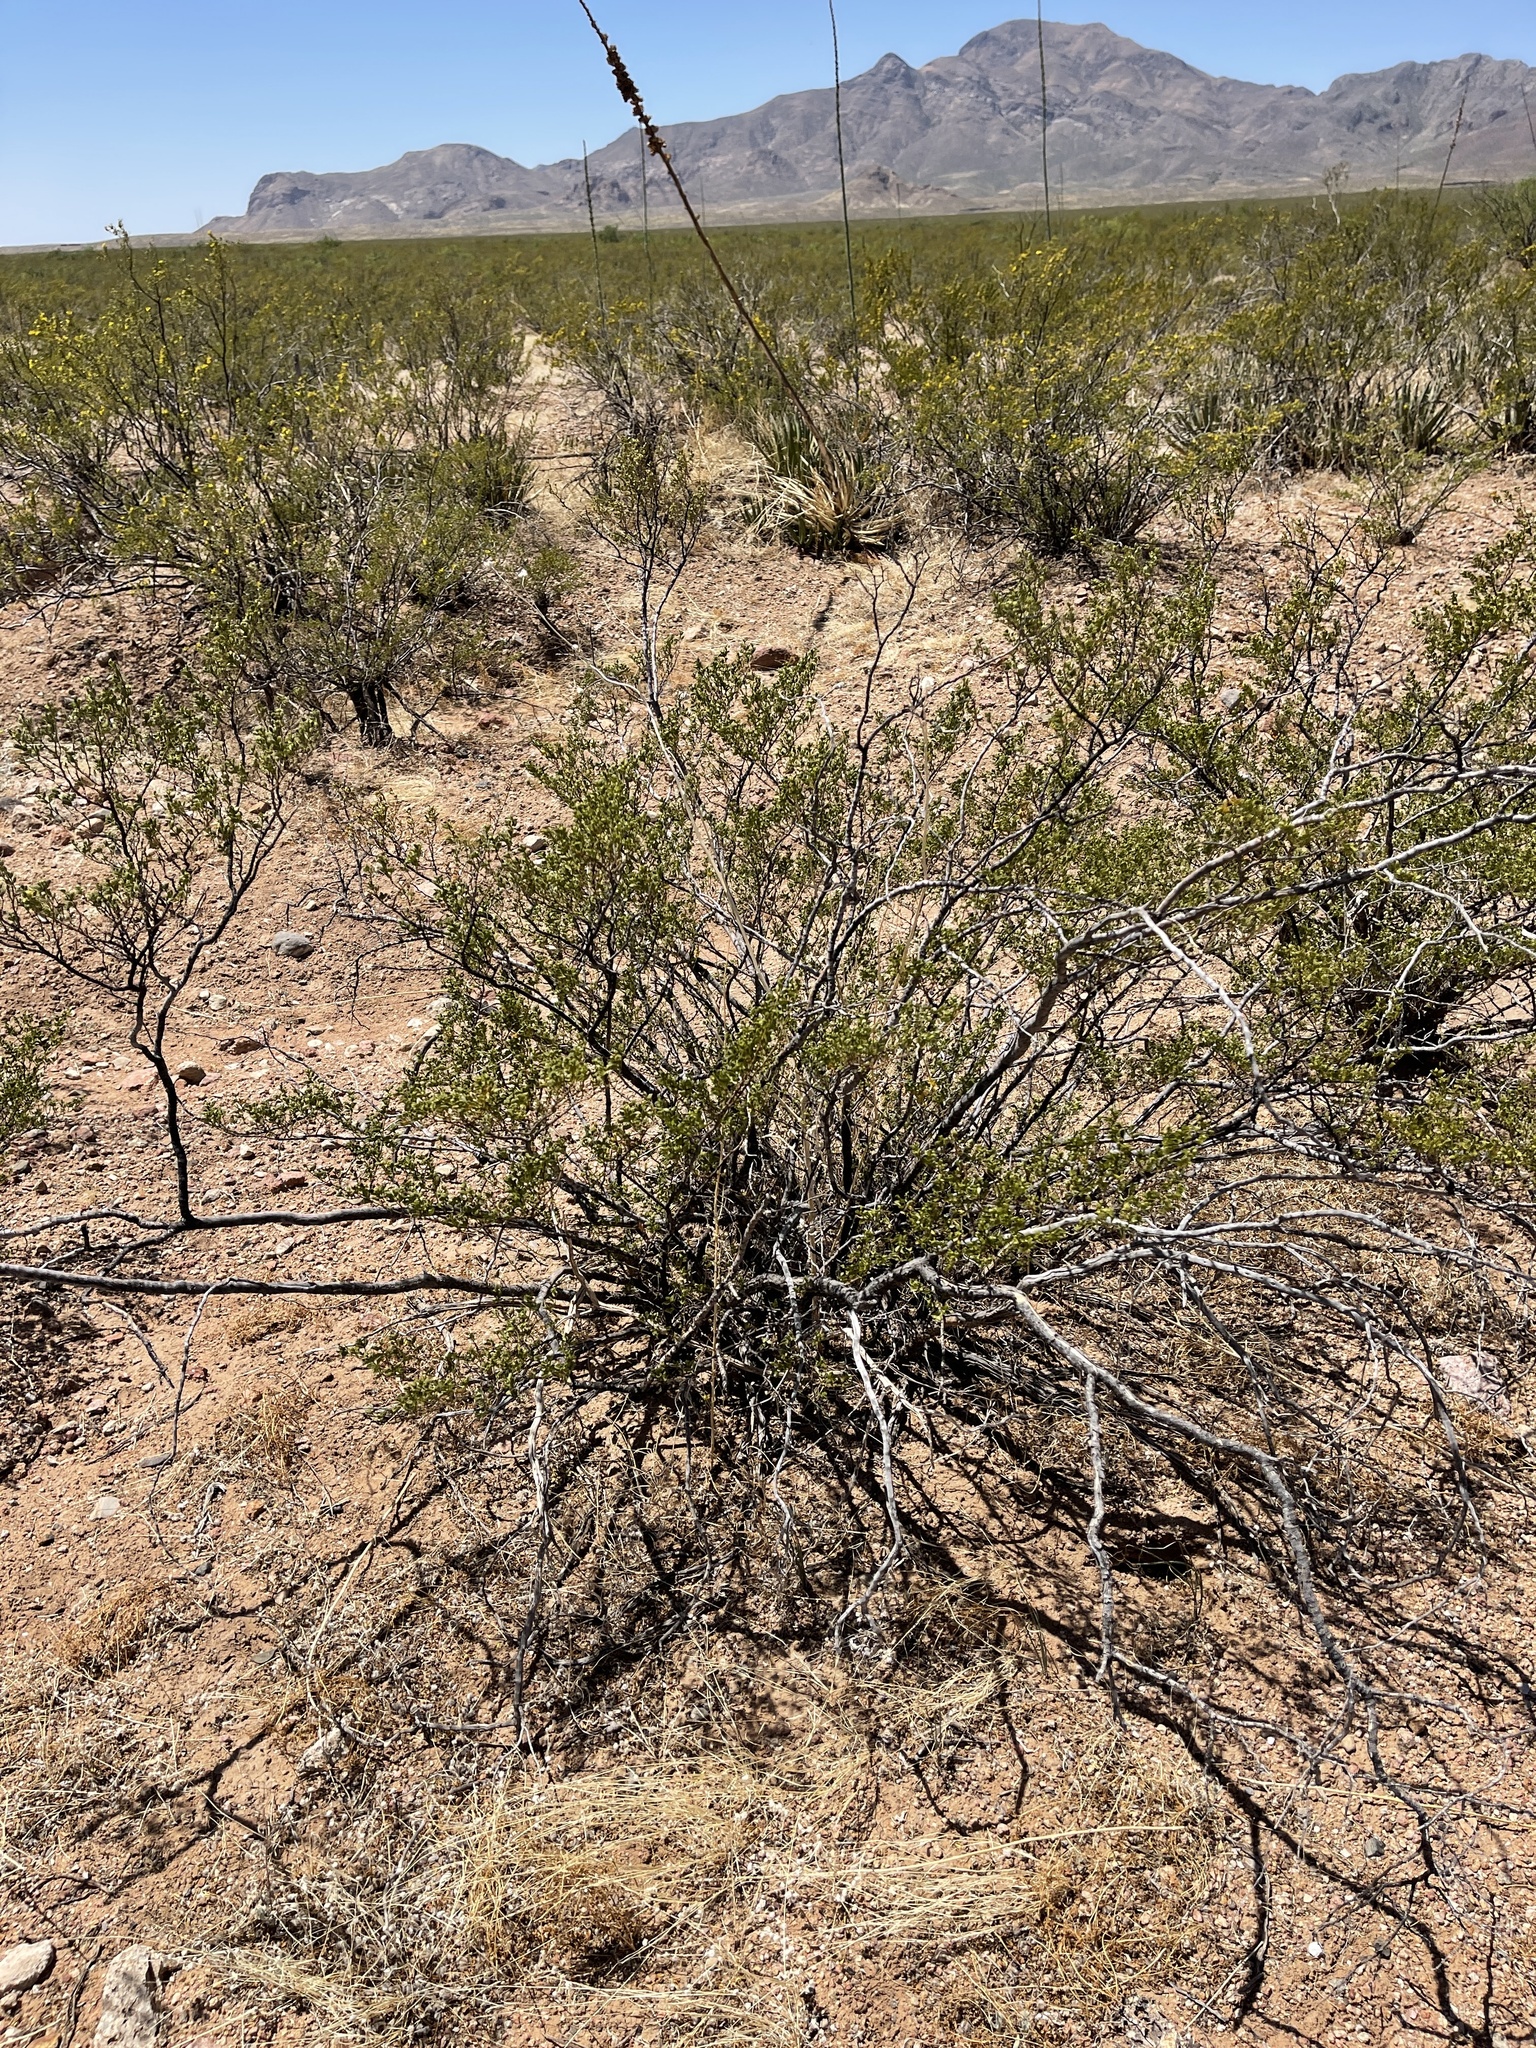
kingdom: Plantae
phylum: Tracheophyta
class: Magnoliopsida
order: Zygophyllales
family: Zygophyllaceae
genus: Larrea
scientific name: Larrea tridentata
